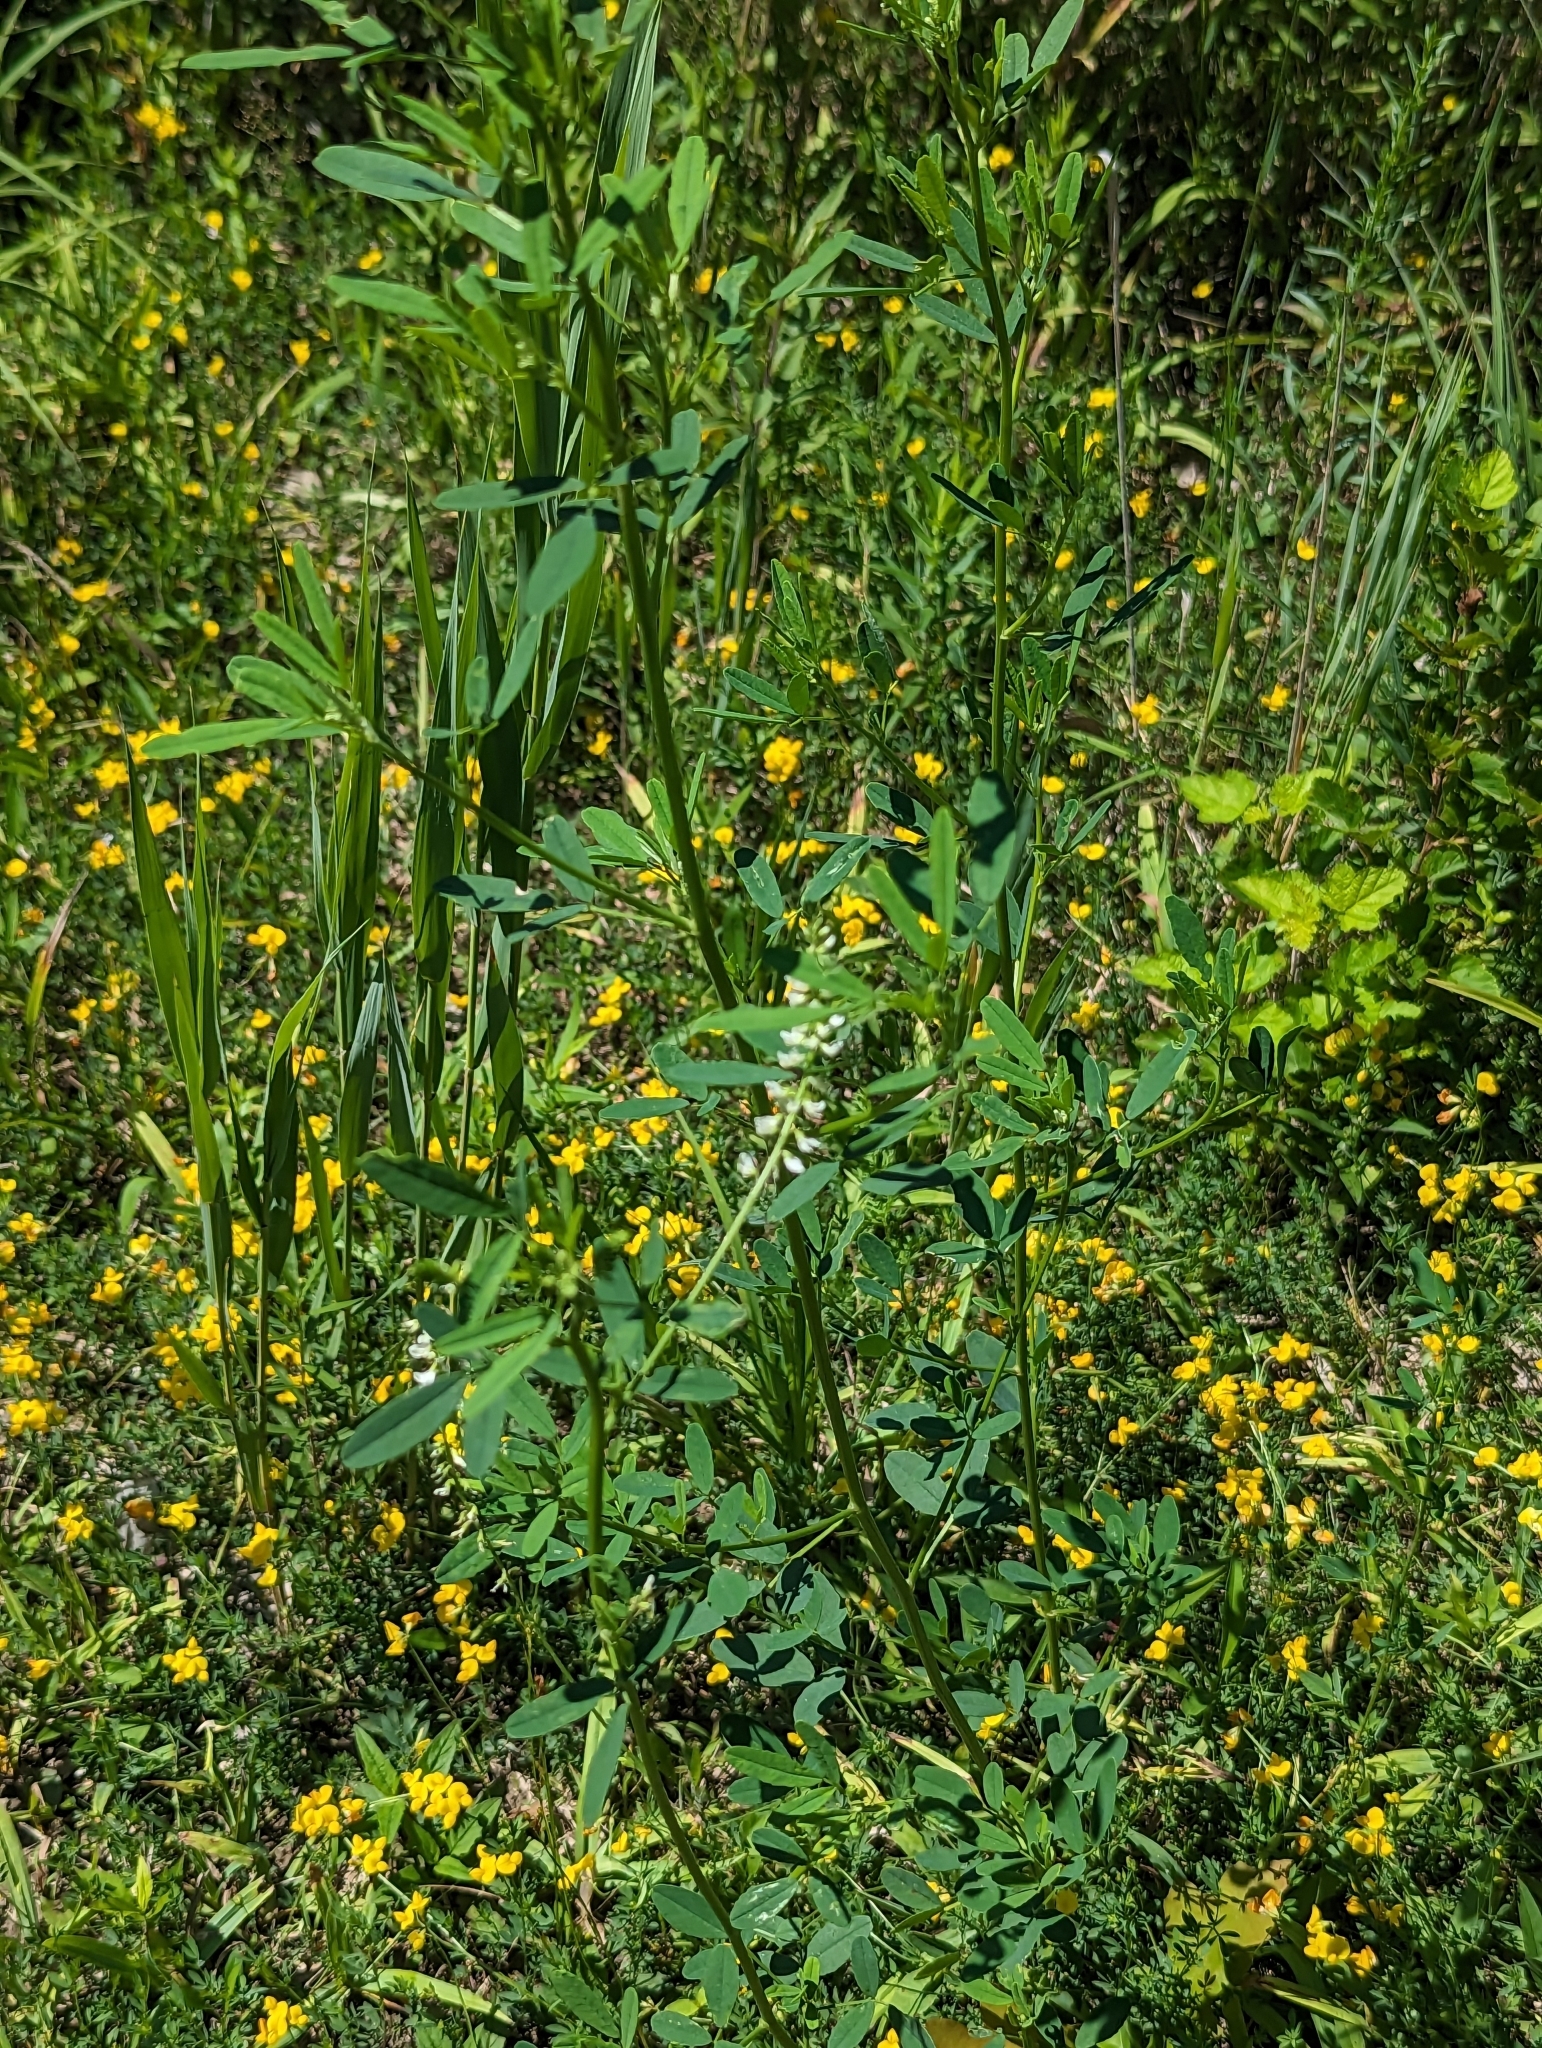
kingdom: Plantae
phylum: Tracheophyta
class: Magnoliopsida
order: Fabales
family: Fabaceae
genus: Melilotus
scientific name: Melilotus albus
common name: White melilot
